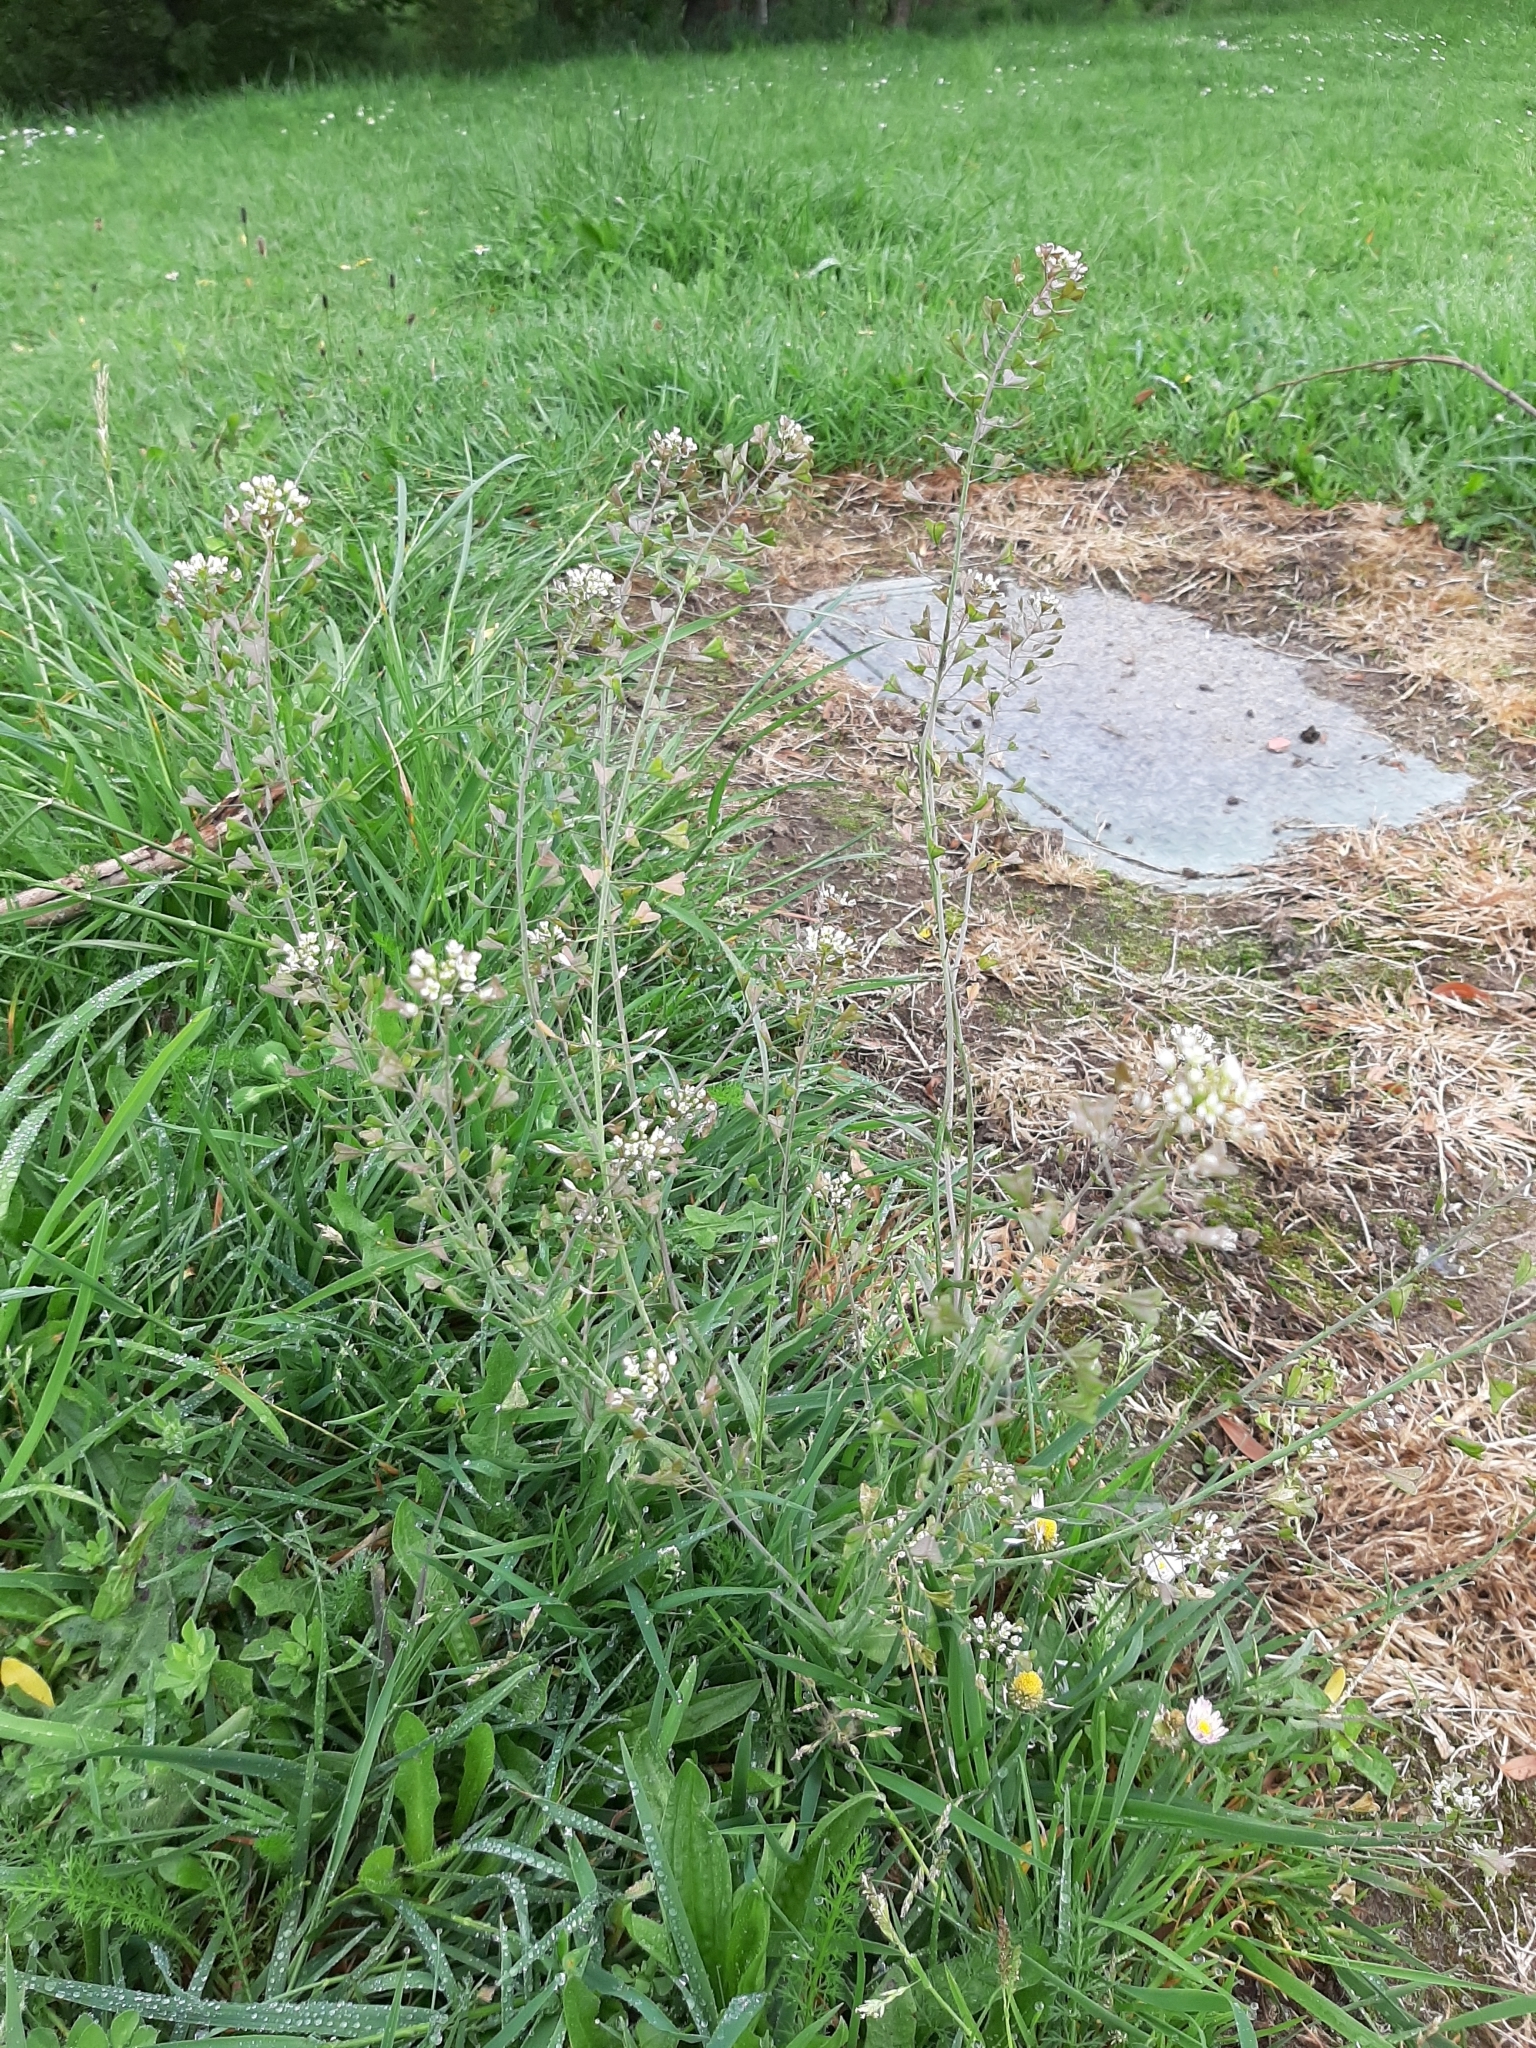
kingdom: Plantae
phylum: Tracheophyta
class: Magnoliopsida
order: Brassicales
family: Brassicaceae
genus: Capsella
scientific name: Capsella bursa-pastoris
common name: Shepherd's purse
